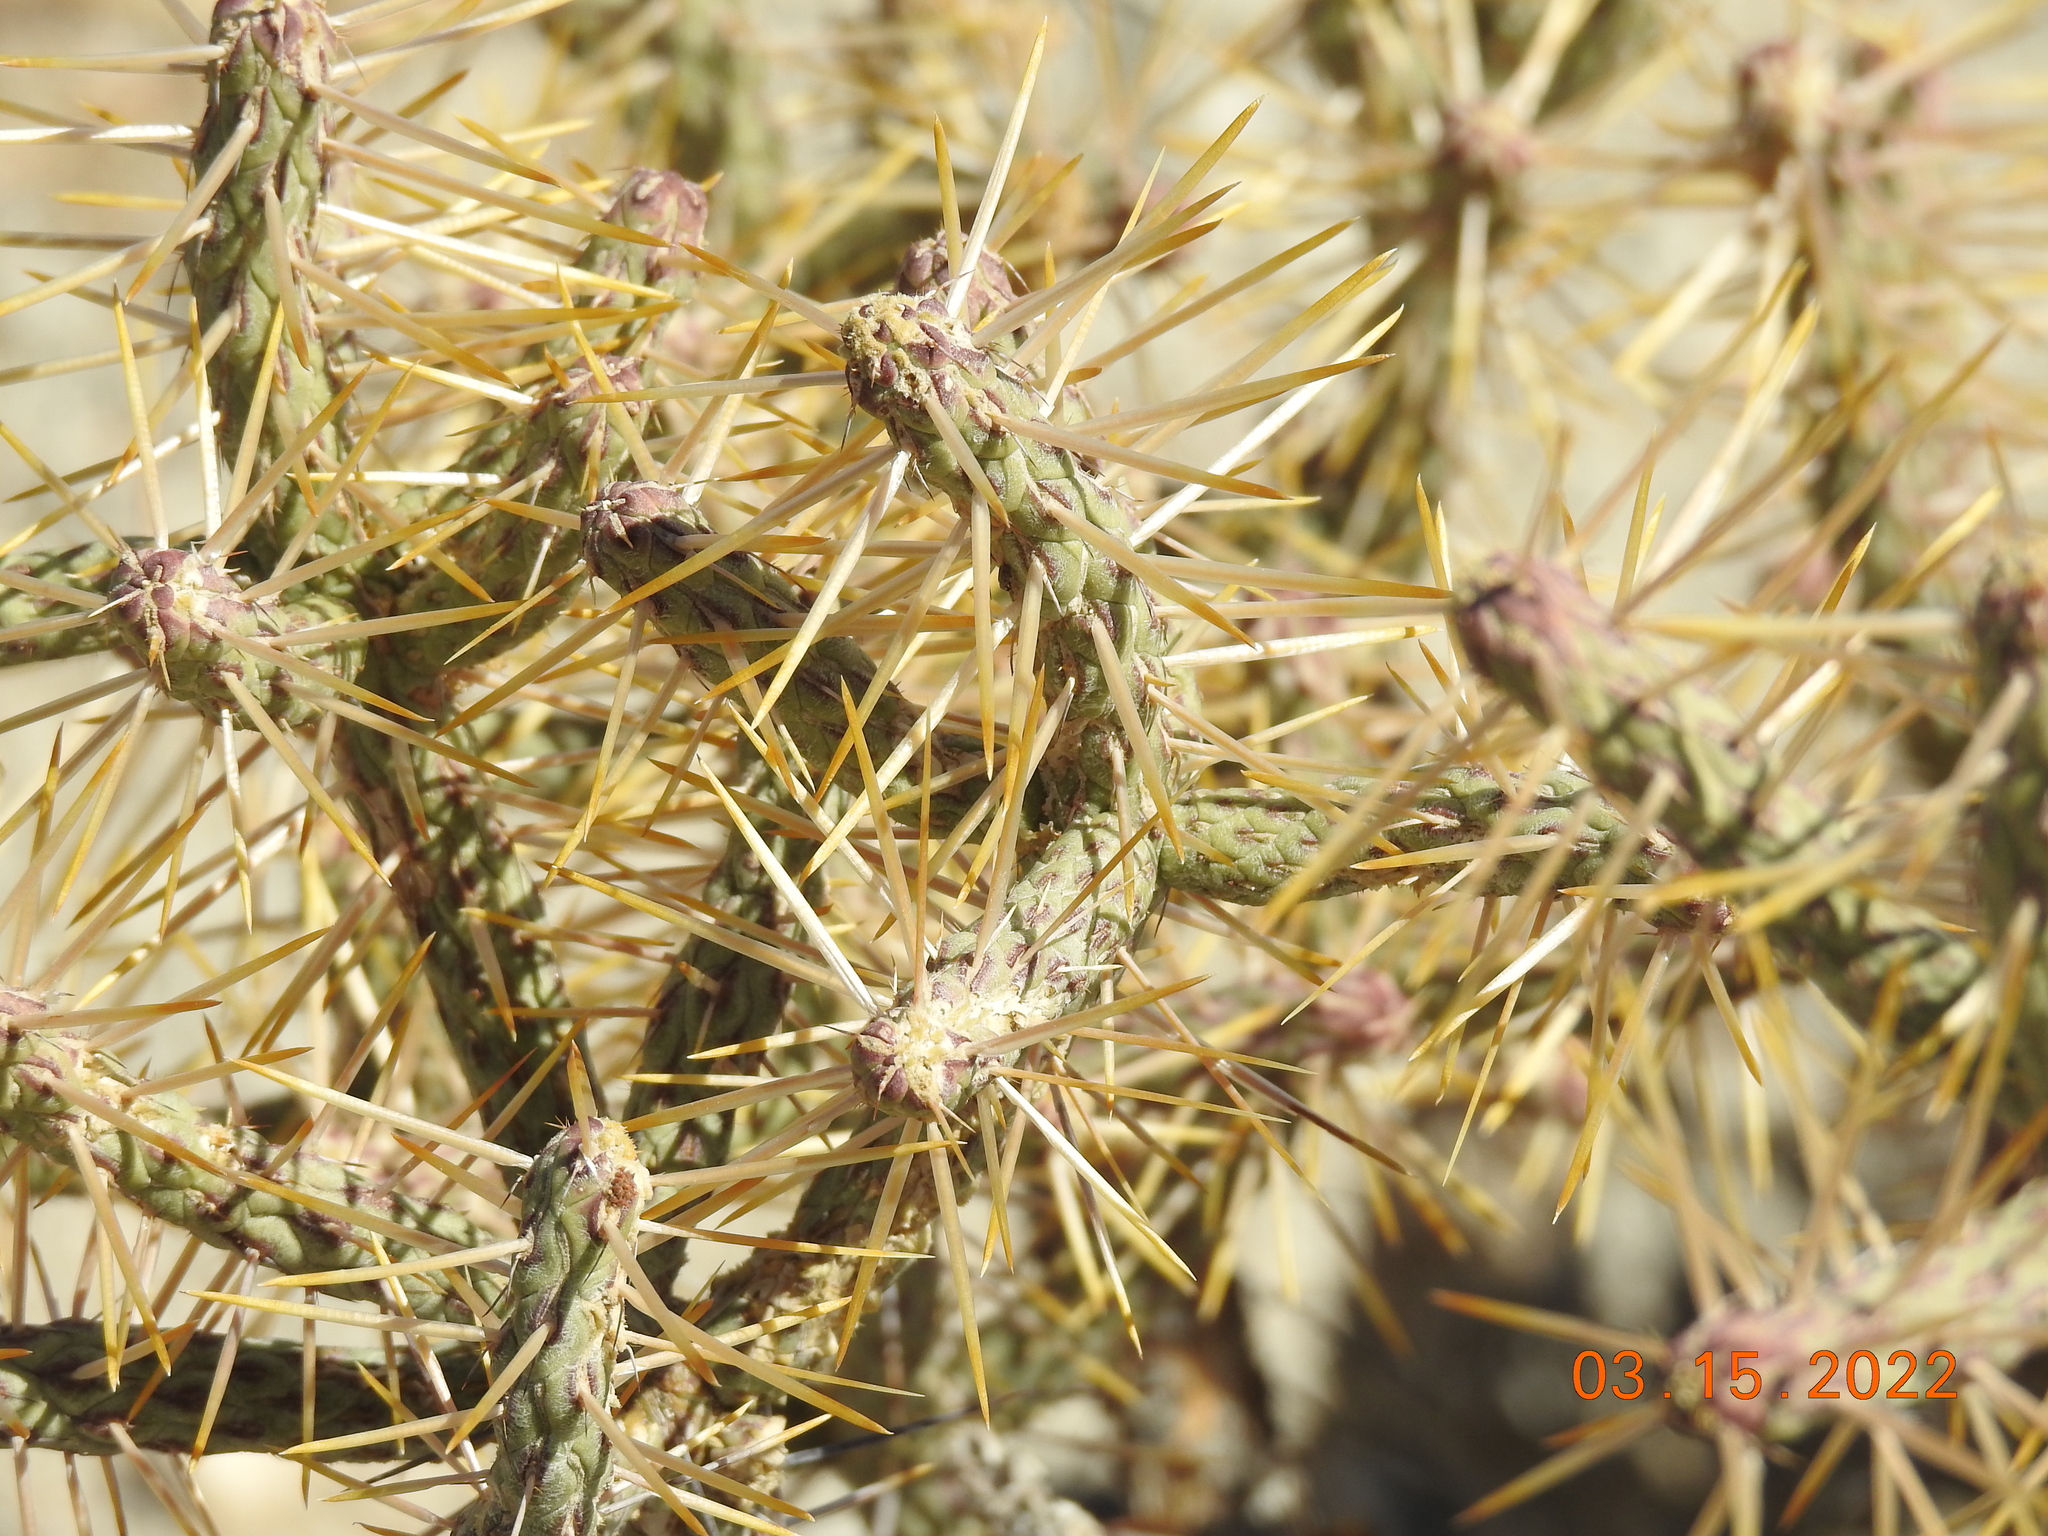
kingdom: Plantae
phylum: Tracheophyta
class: Magnoliopsida
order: Caryophyllales
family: Cactaceae
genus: Cylindropuntia
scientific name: Cylindropuntia ramosissima
